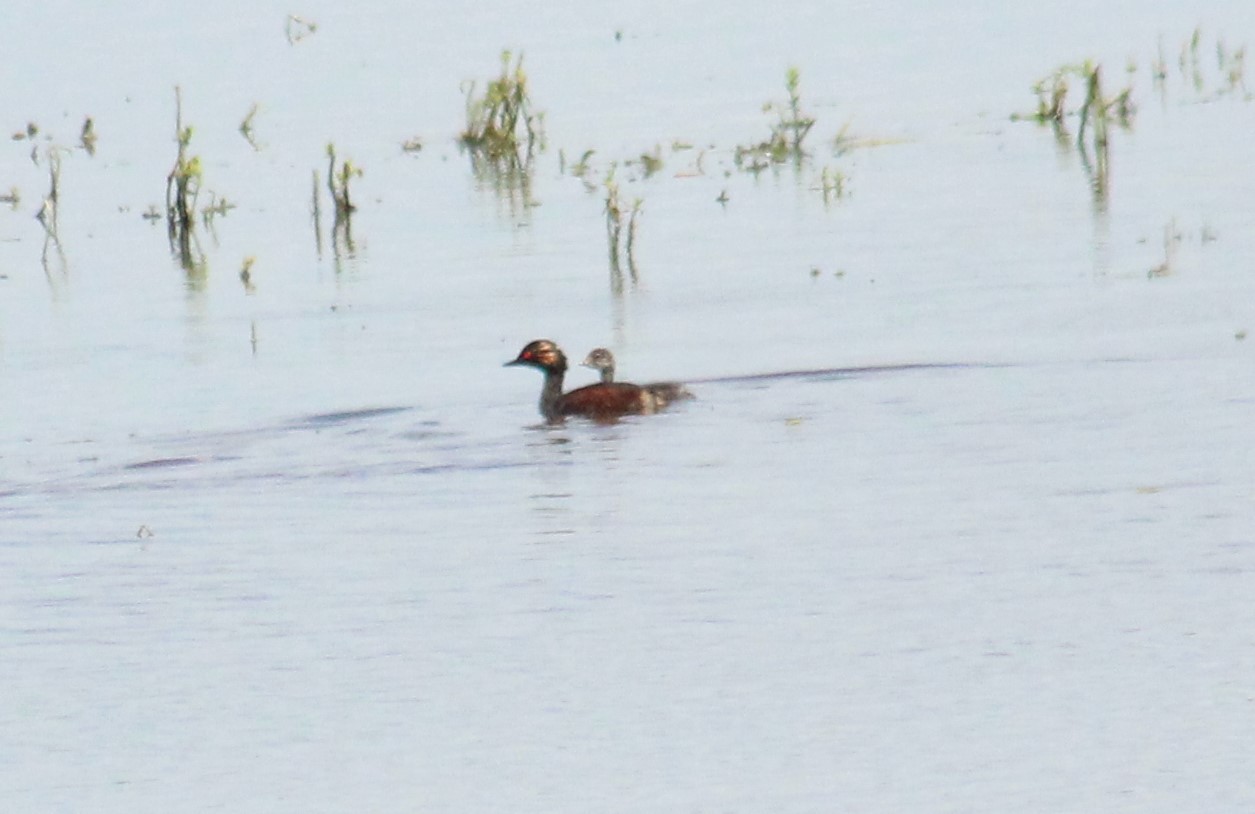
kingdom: Animalia
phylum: Chordata
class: Aves
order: Podicipediformes
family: Podicipedidae
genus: Podiceps
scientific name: Podiceps nigricollis
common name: Black-necked grebe
